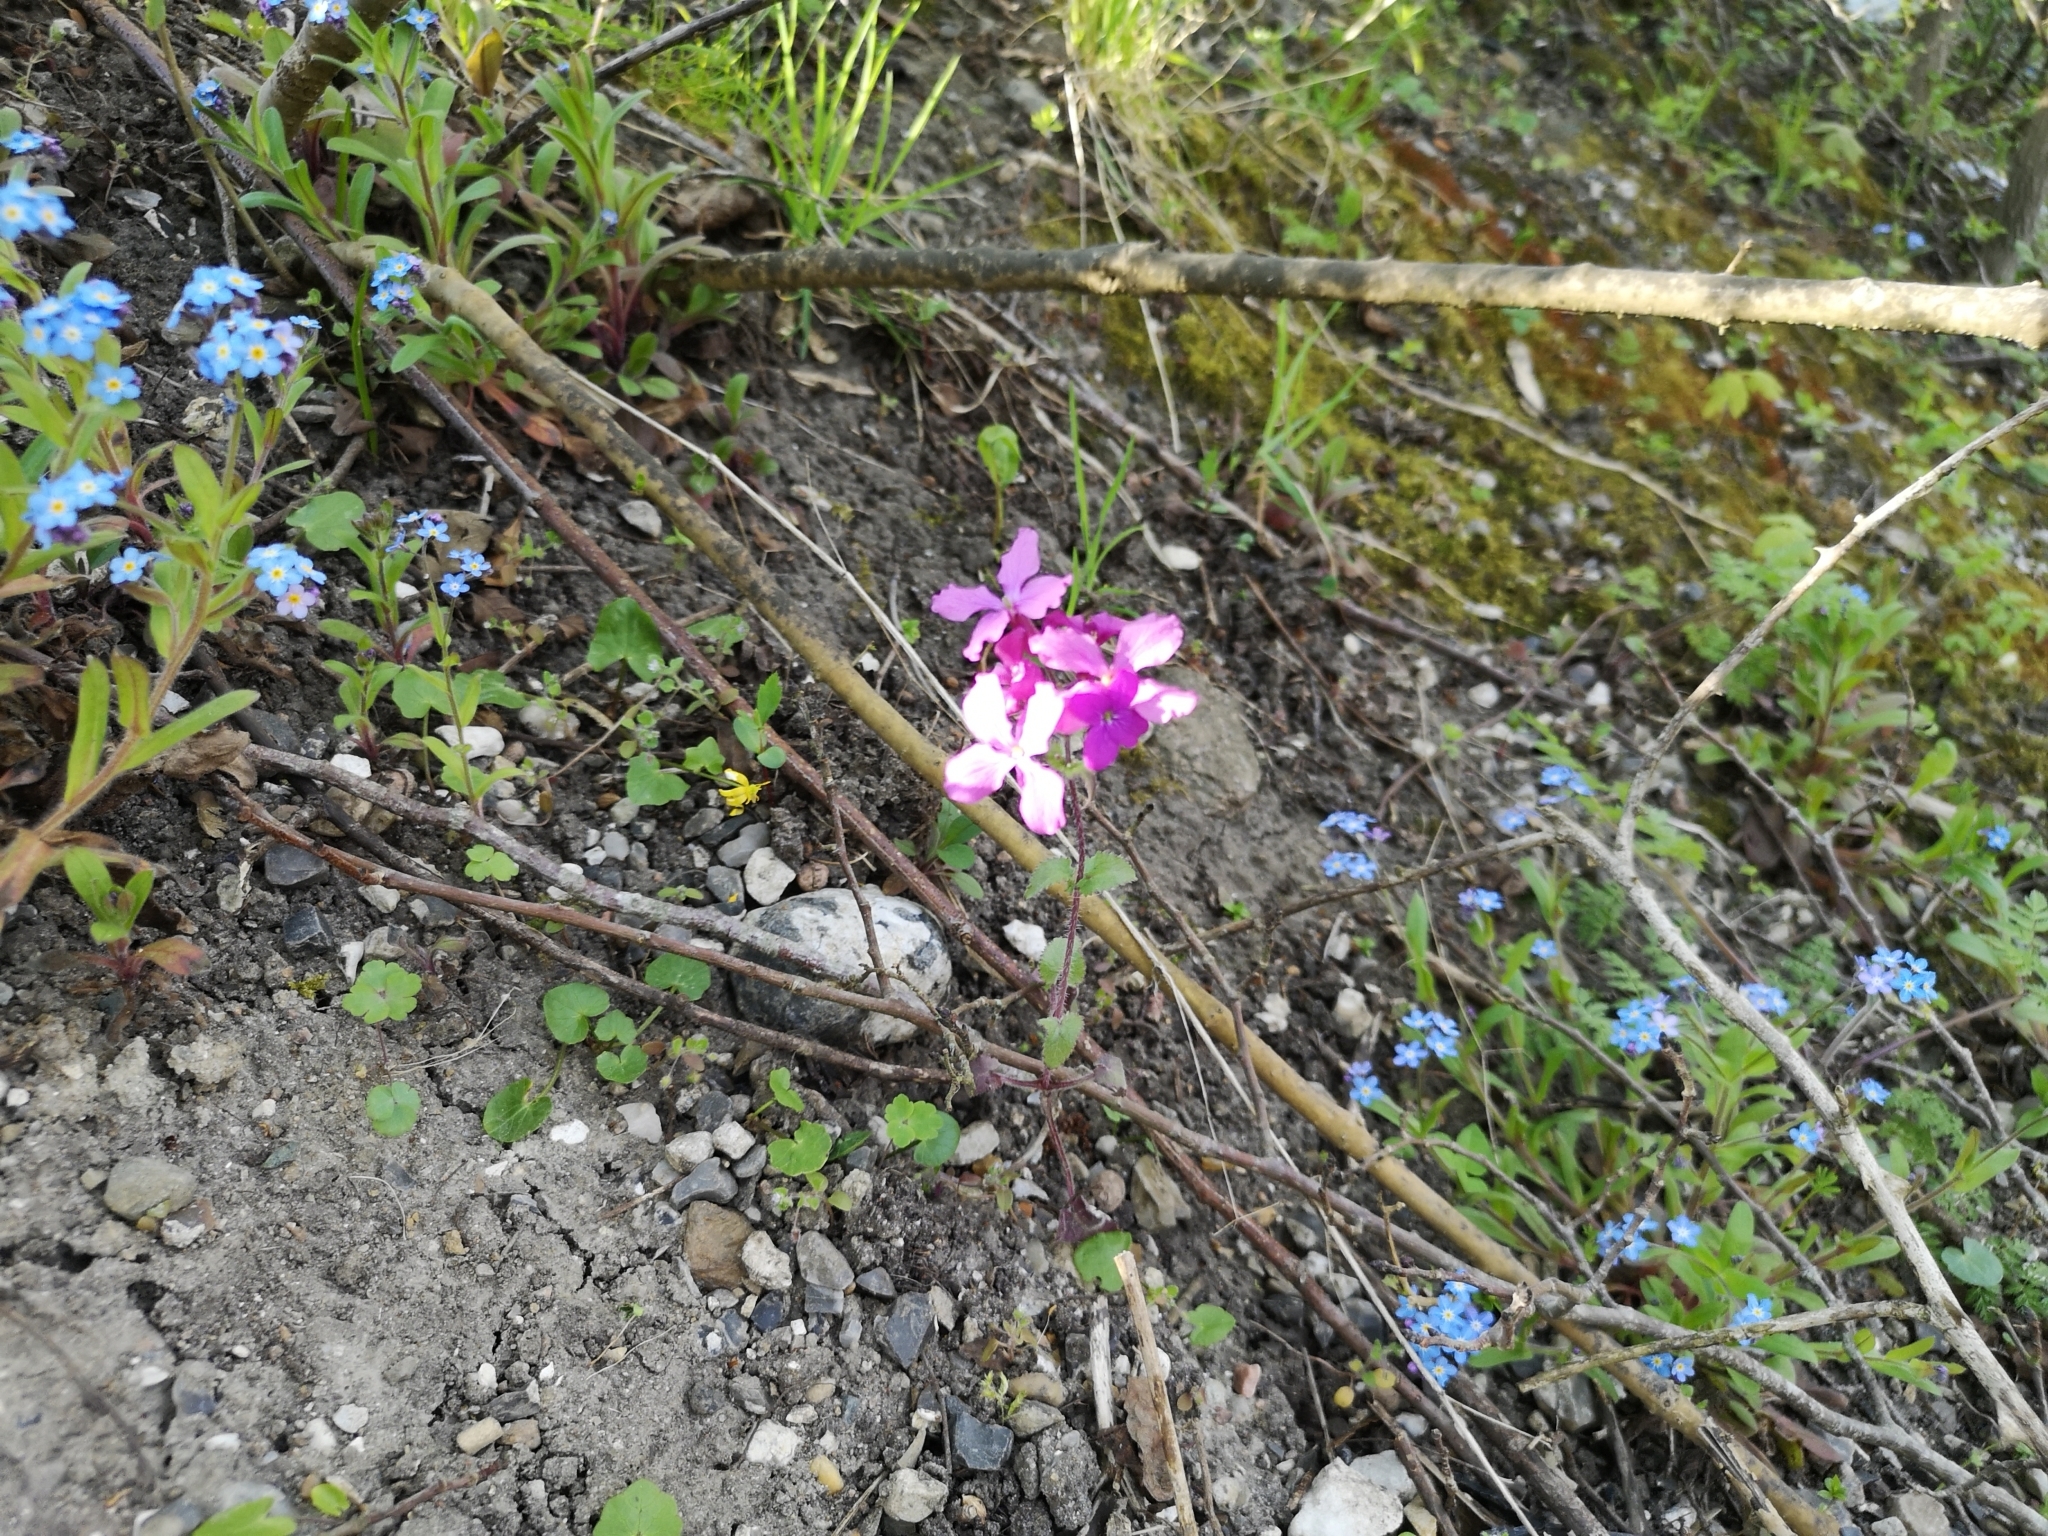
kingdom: Plantae
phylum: Tracheophyta
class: Magnoliopsida
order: Brassicales
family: Brassicaceae
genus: Lunaria
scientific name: Lunaria annua
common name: Honesty
